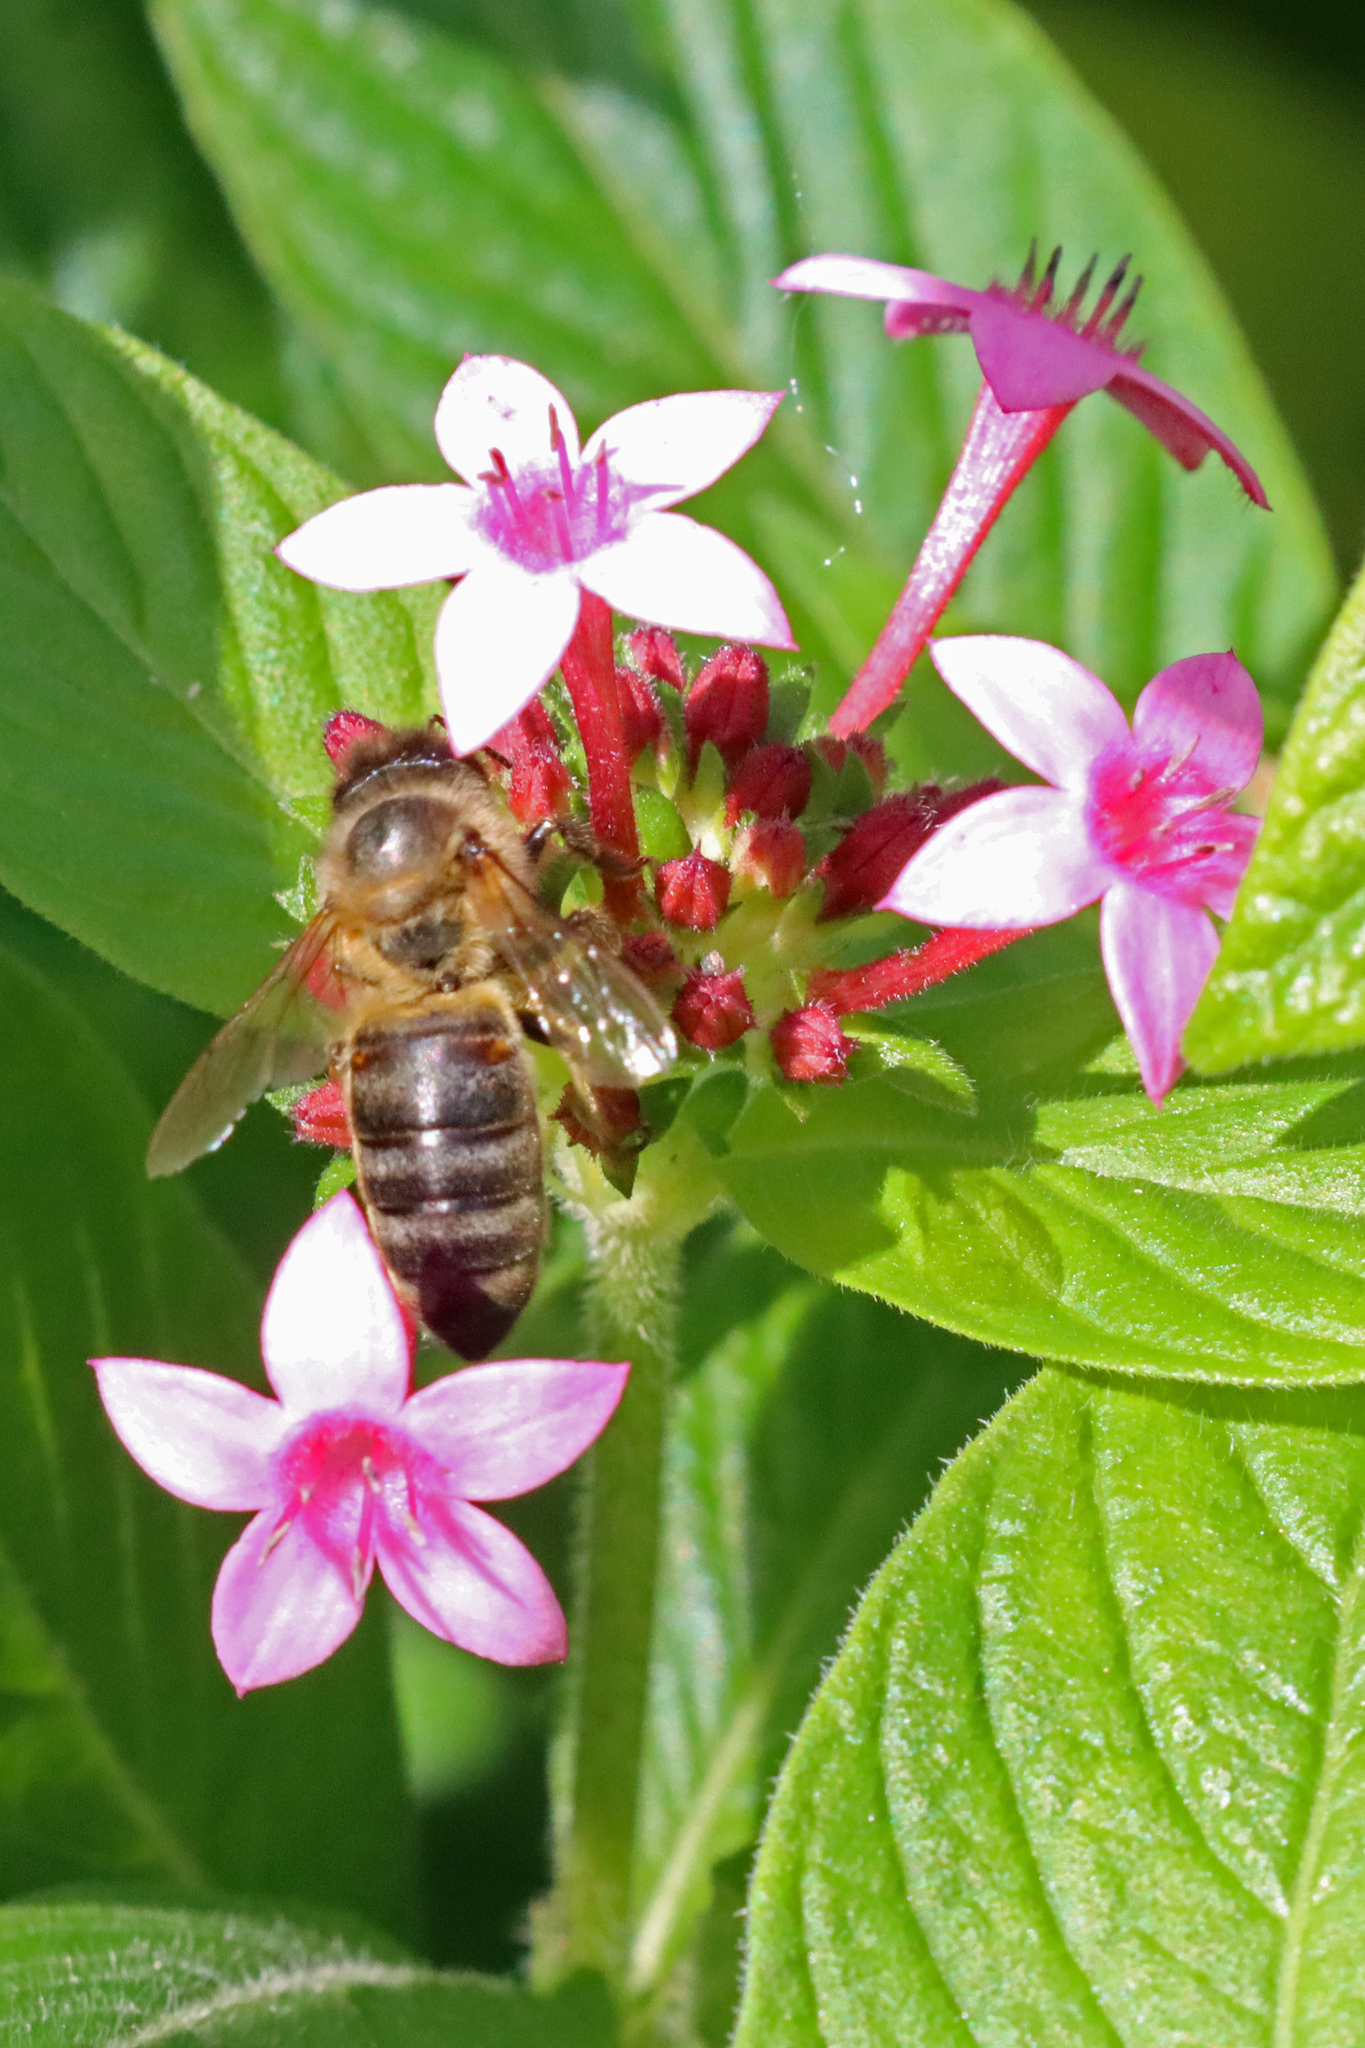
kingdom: Animalia
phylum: Arthropoda
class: Insecta
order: Hymenoptera
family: Apidae
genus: Apis
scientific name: Apis mellifera
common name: Honey bee
